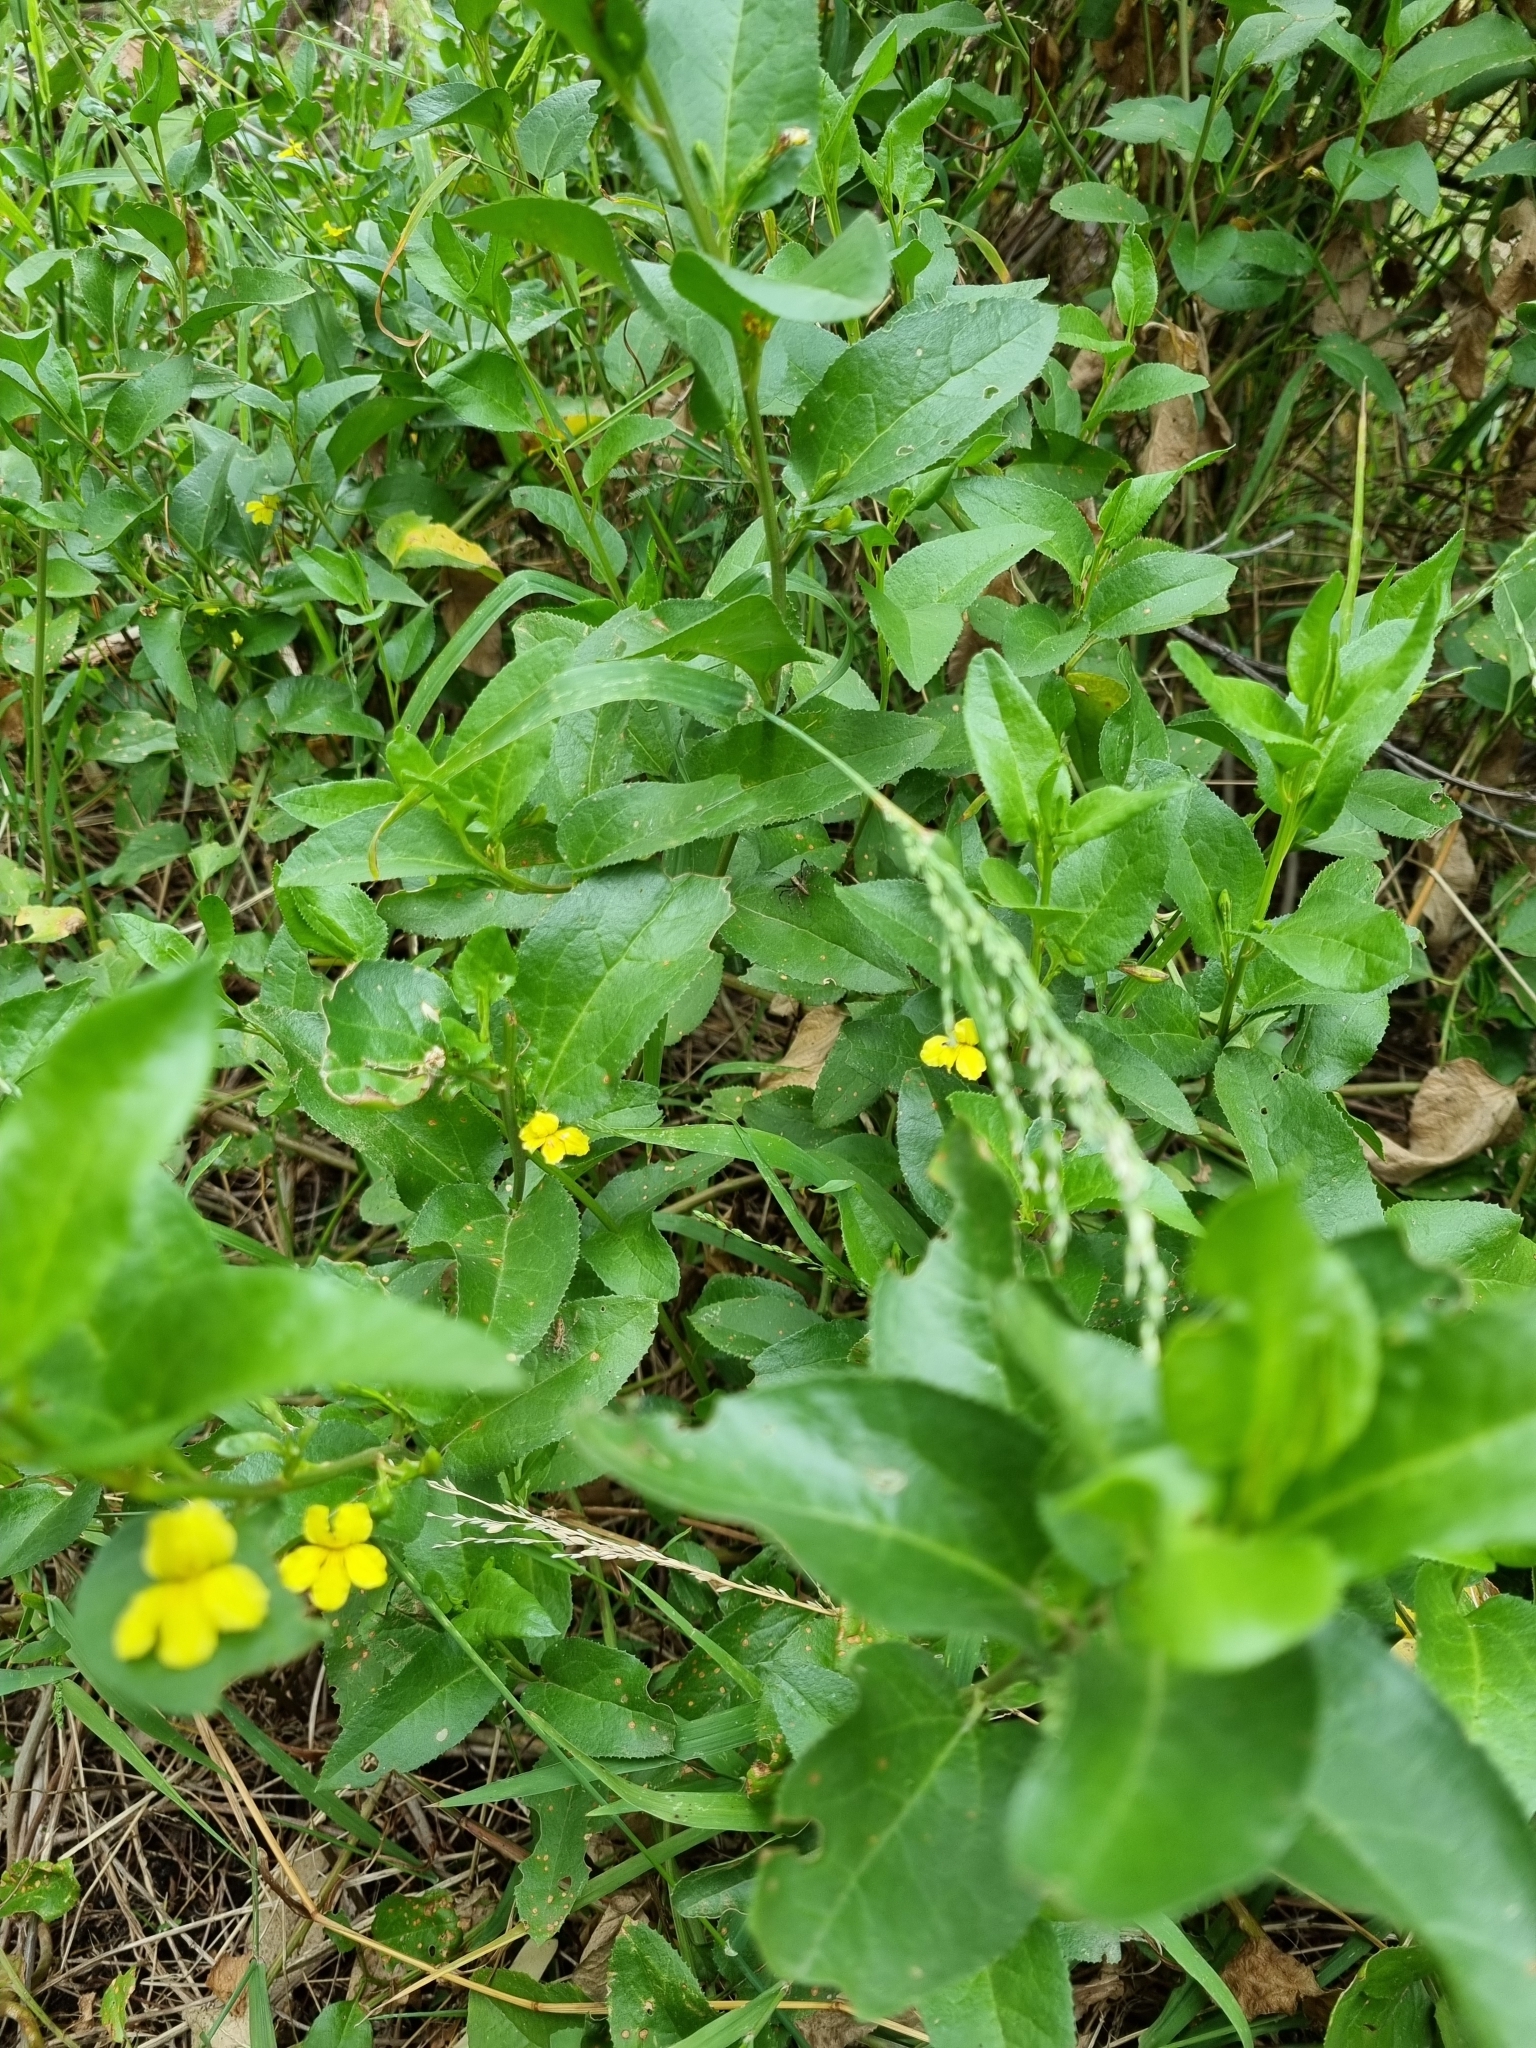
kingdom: Plantae
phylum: Tracheophyta
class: Magnoliopsida
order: Asterales
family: Goodeniaceae
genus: Goodenia
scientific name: Goodenia ovata
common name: Hop goodenia
